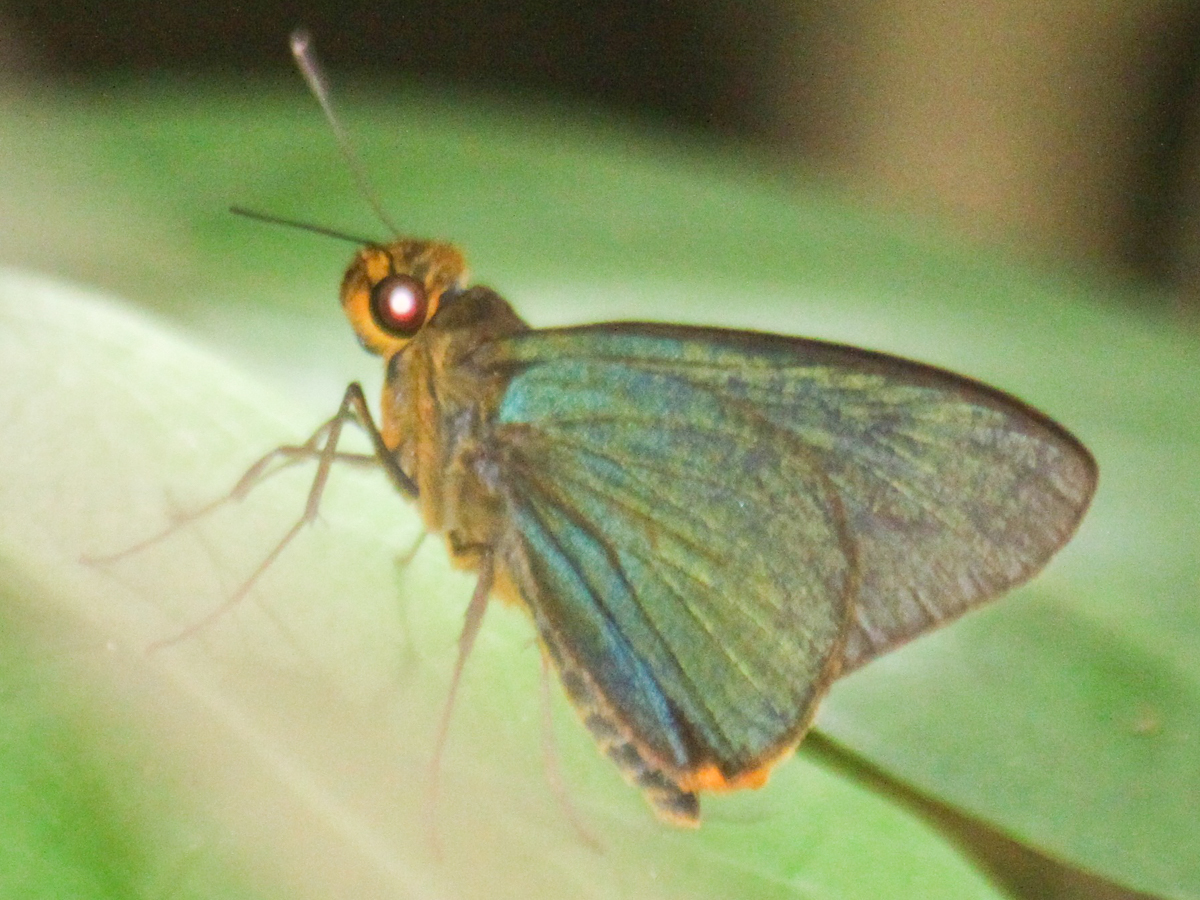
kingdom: Animalia
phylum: Arthropoda
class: Insecta
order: Lepidoptera
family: Hesperiidae
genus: Pirdana
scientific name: Pirdana distanti
